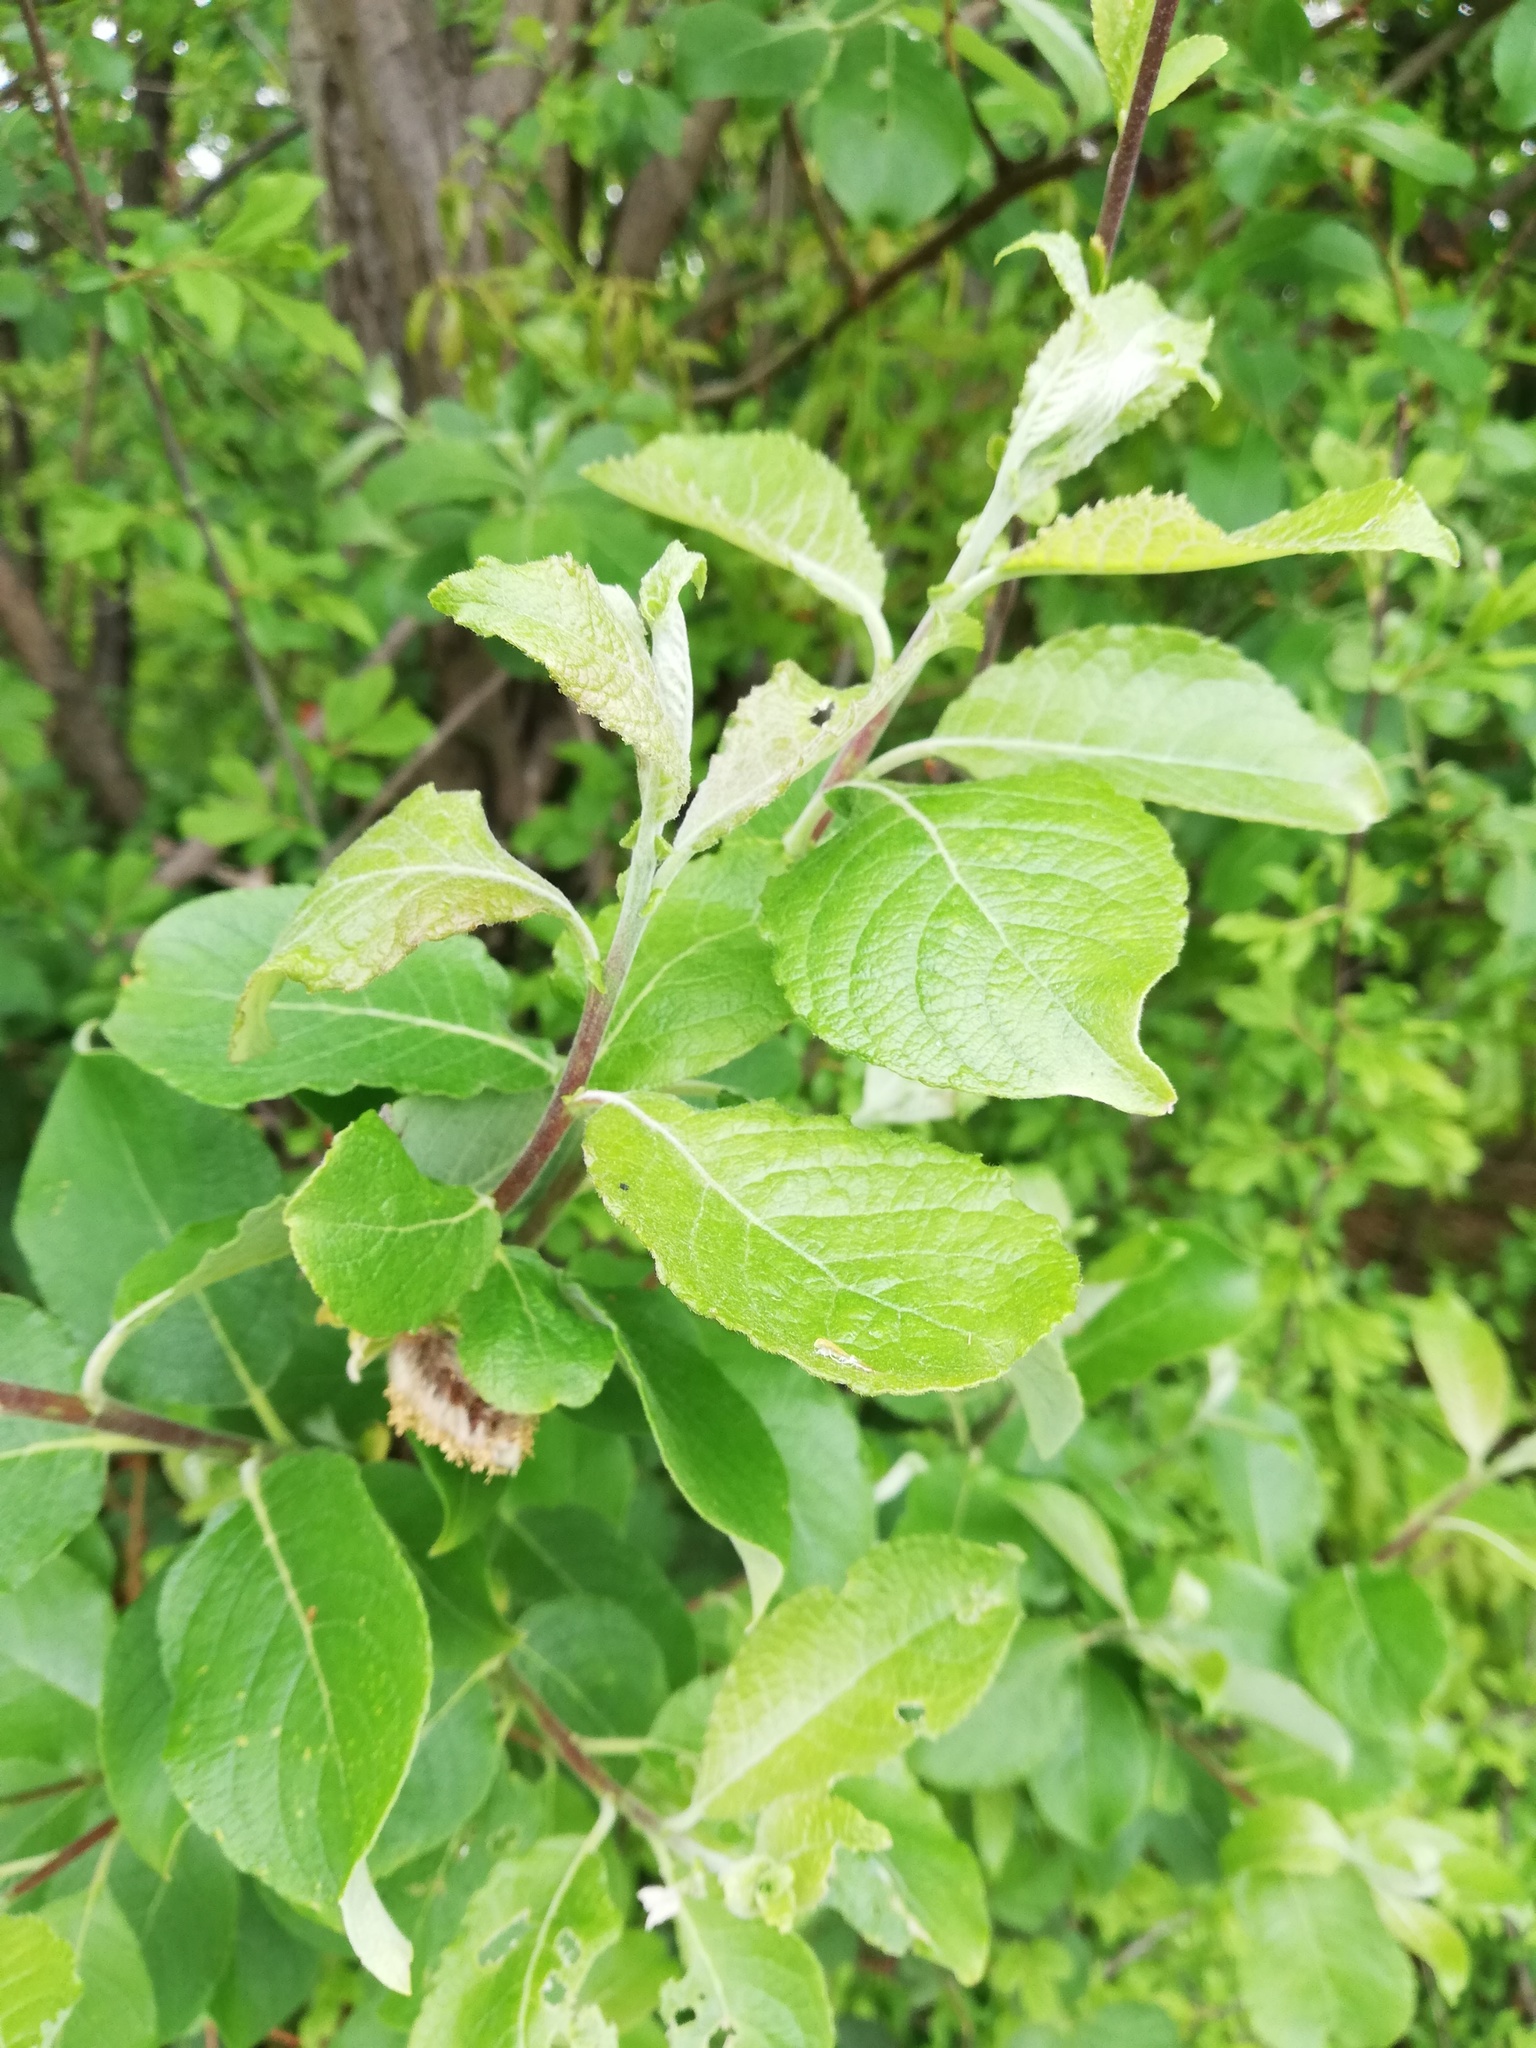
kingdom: Plantae
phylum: Tracheophyta
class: Magnoliopsida
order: Malpighiales
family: Salicaceae
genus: Salix
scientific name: Salix caprea
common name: Goat willow
